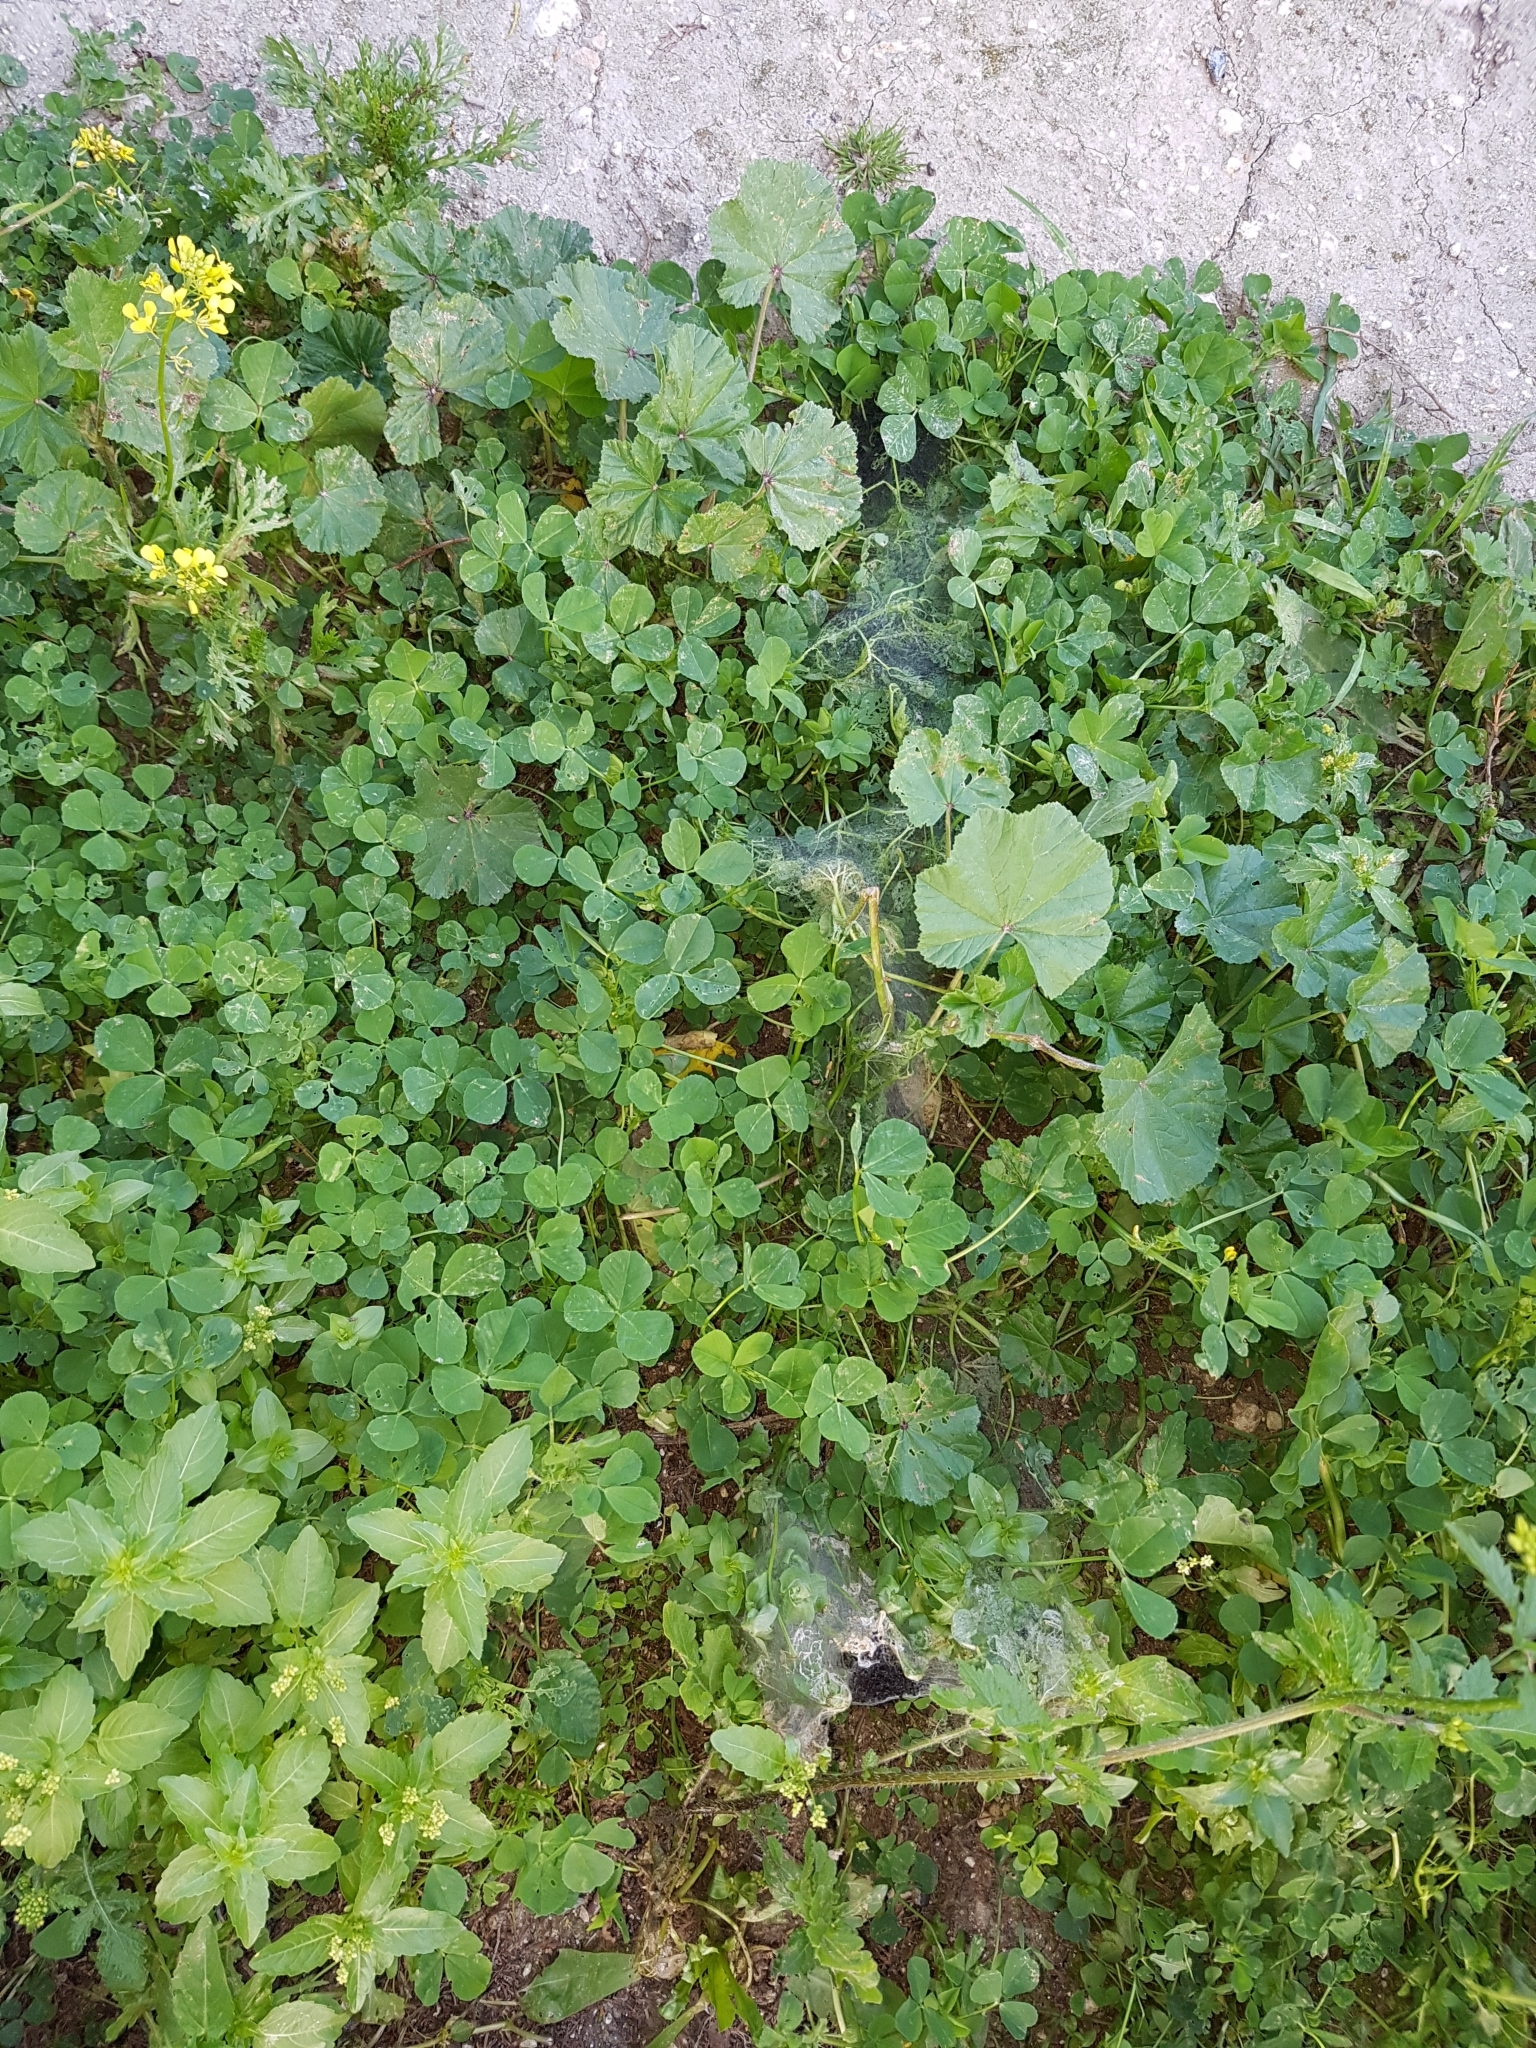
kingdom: Plantae
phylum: Tracheophyta
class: Magnoliopsida
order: Malpighiales
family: Euphorbiaceae
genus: Mercurialis
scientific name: Mercurialis annua
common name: Annual mercury
